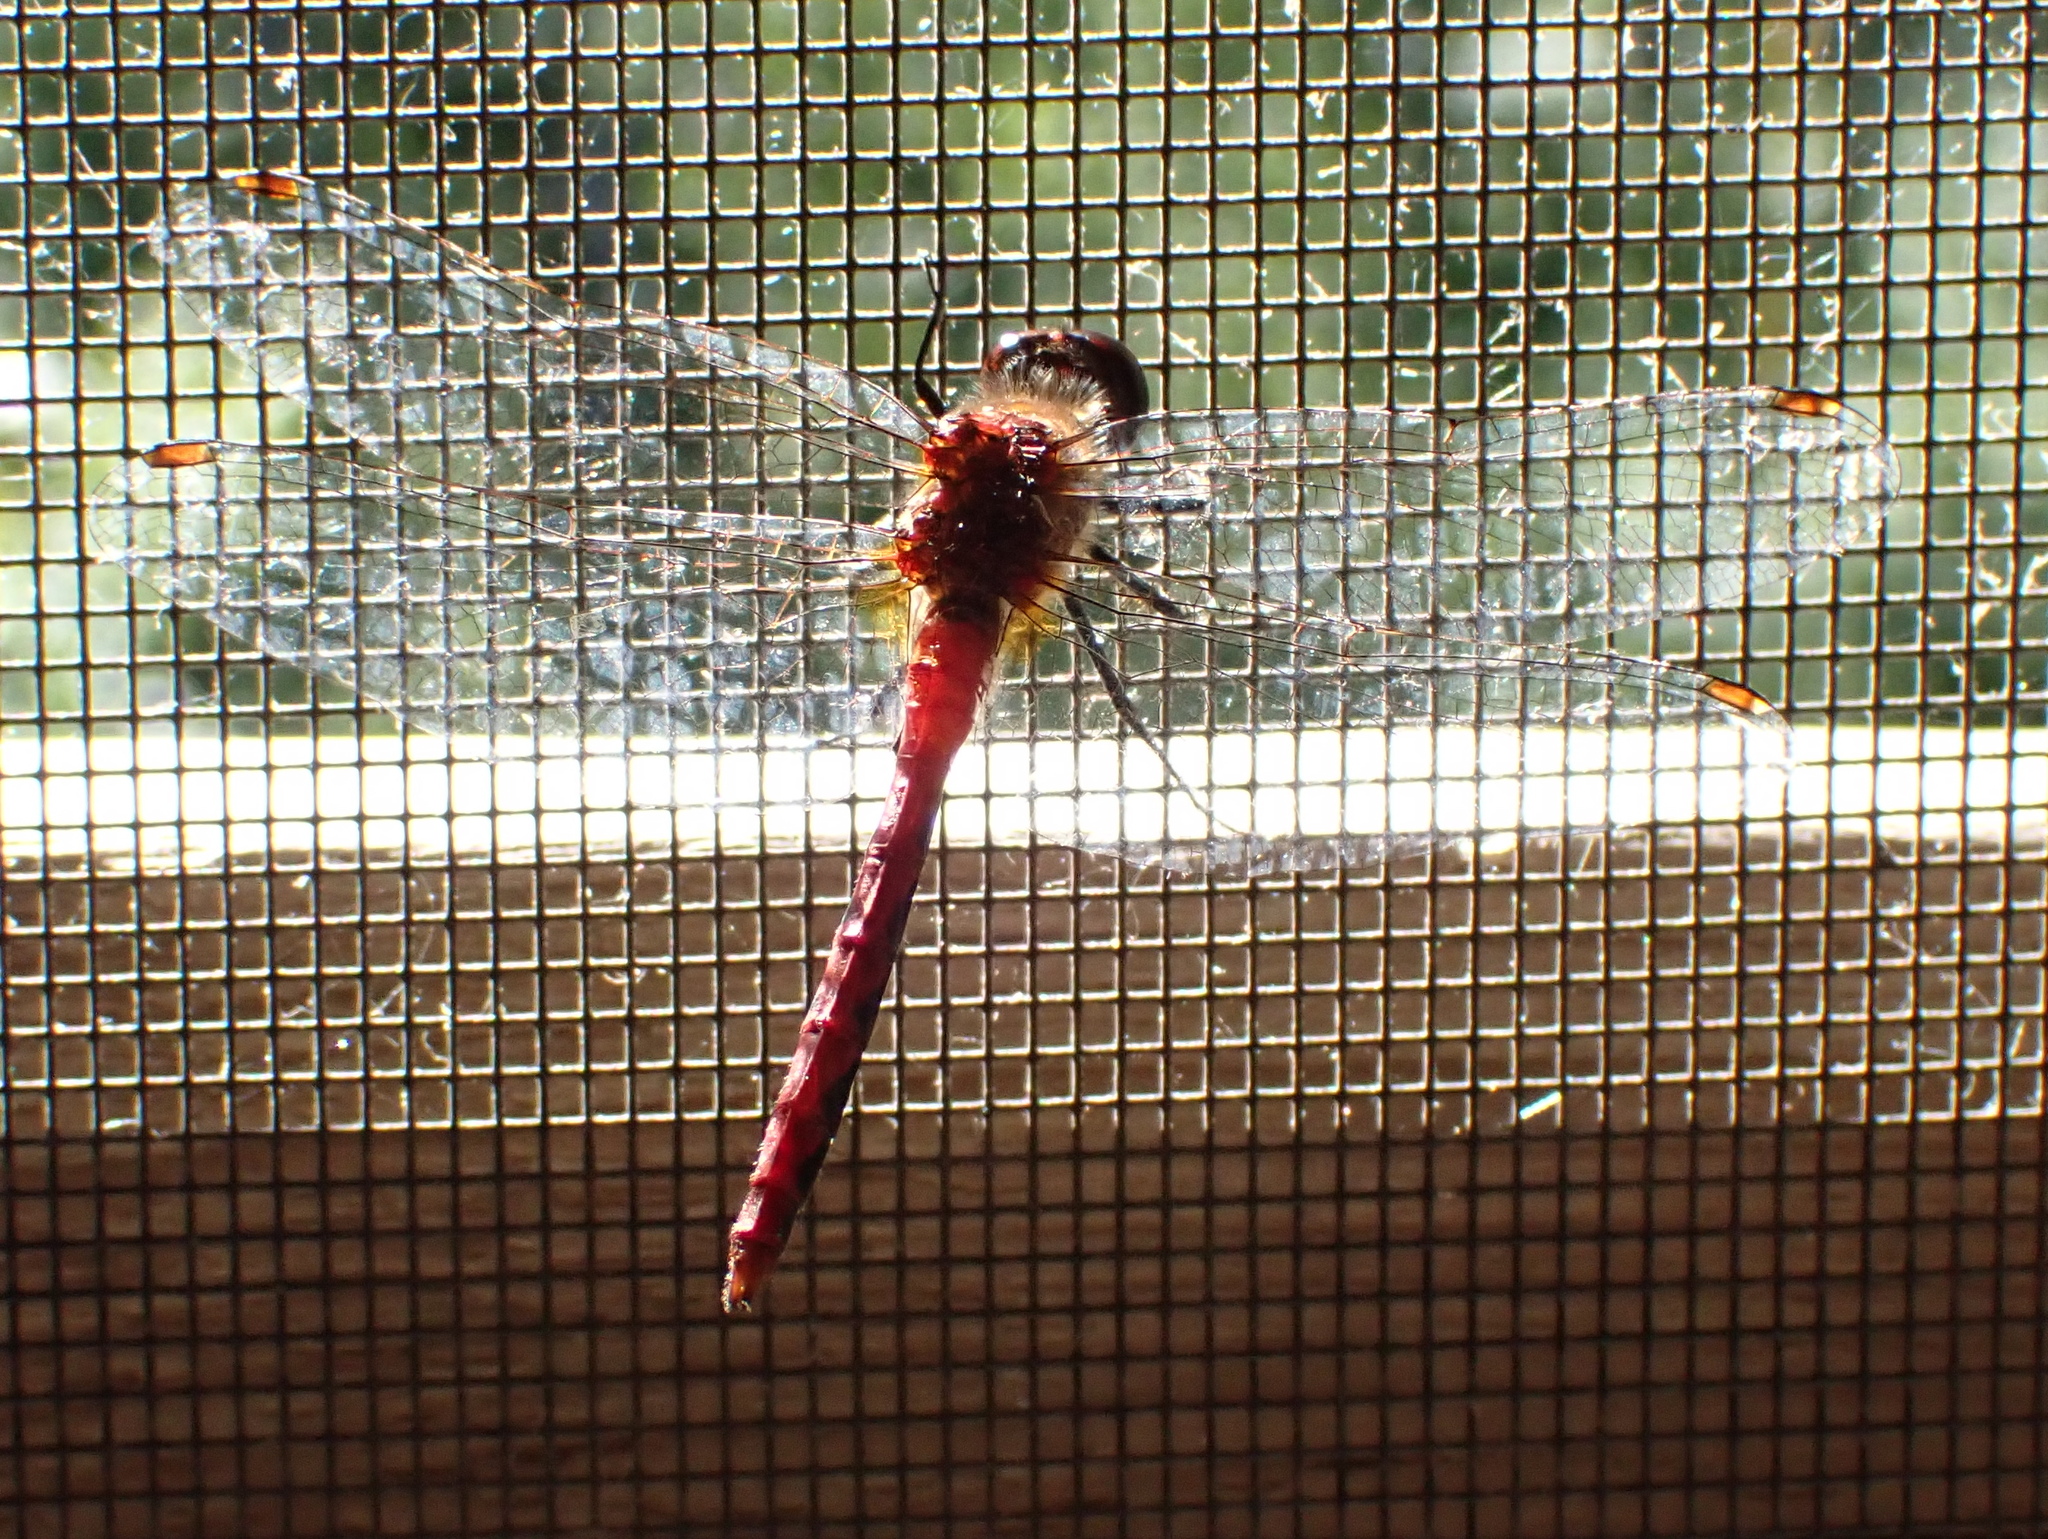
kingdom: Animalia
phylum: Arthropoda
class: Insecta
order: Odonata
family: Libellulidae
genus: Sympetrum
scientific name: Sympetrum internum
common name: Cherry-faced meadowhawk
